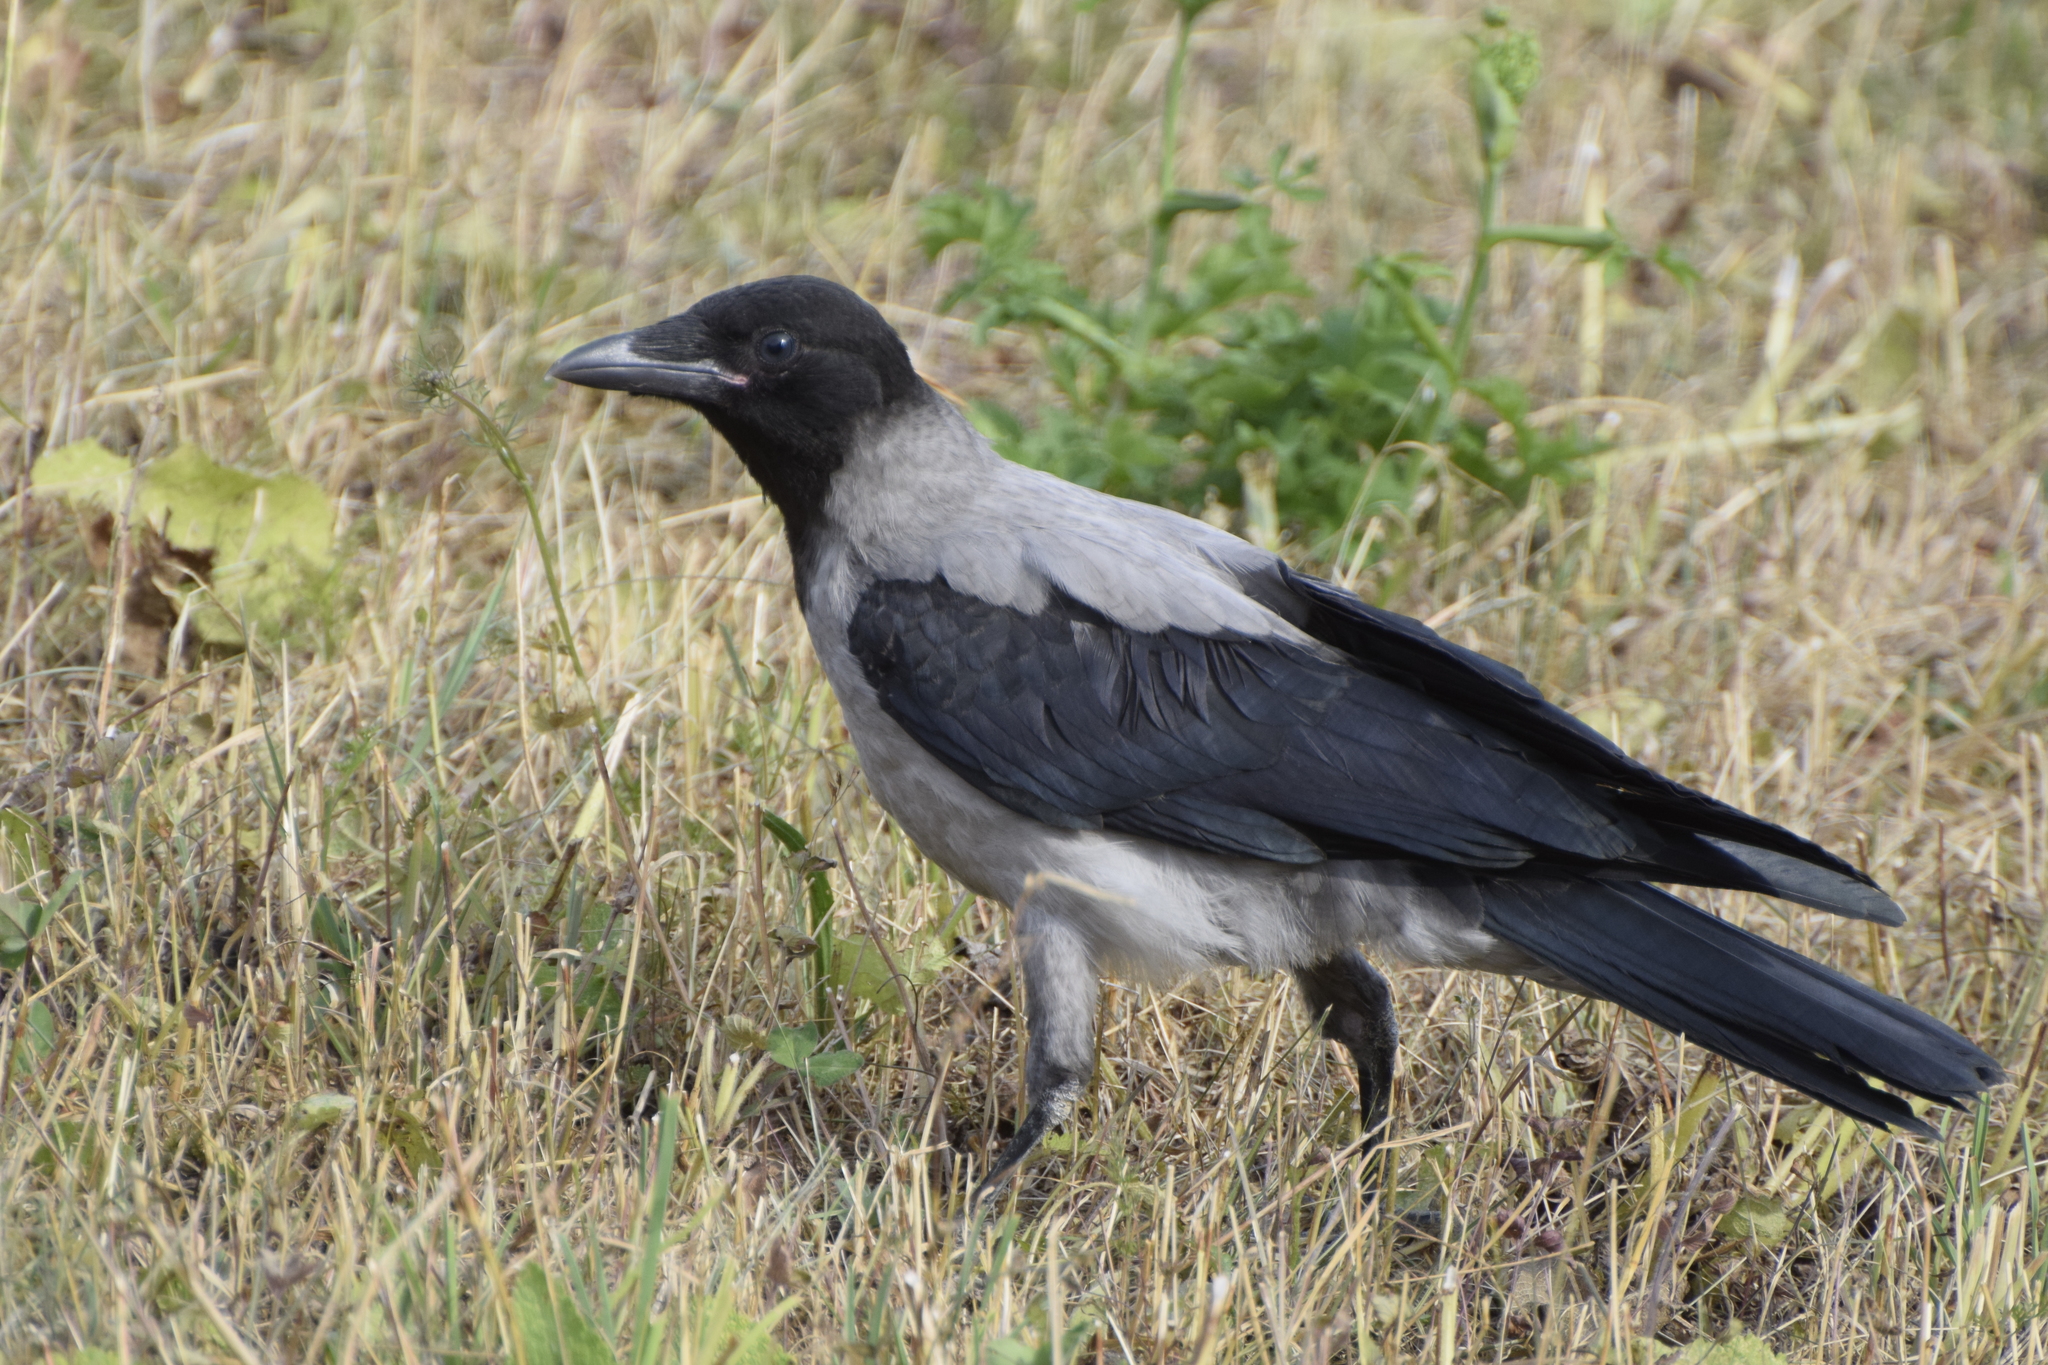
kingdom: Animalia
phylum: Chordata
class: Aves
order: Passeriformes
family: Corvidae
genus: Corvus
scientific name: Corvus cornix
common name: Hooded crow
